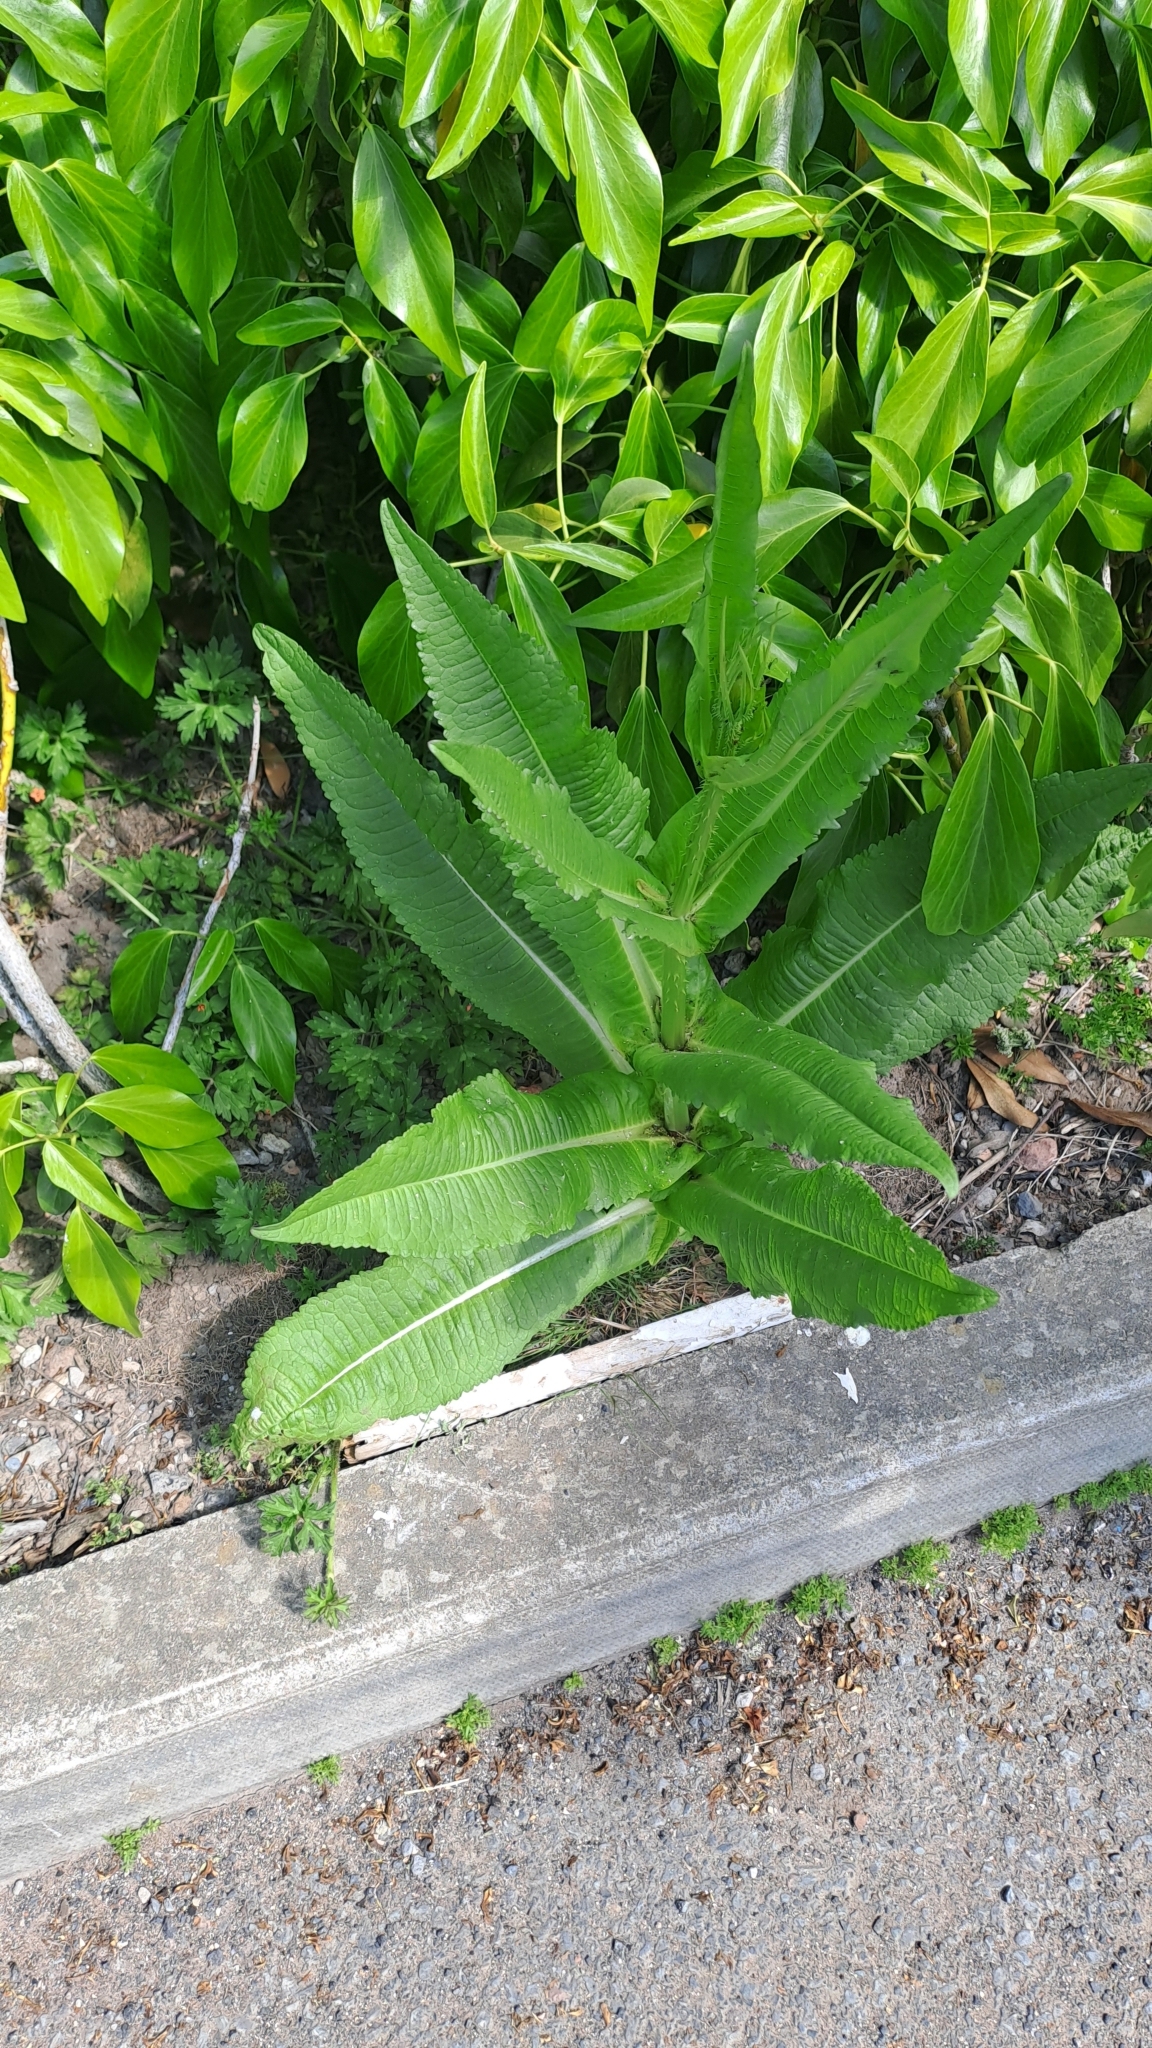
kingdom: Plantae
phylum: Tracheophyta
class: Magnoliopsida
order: Dipsacales
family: Caprifoliaceae
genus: Dipsacus
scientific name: Dipsacus fullonum
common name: Teasel
